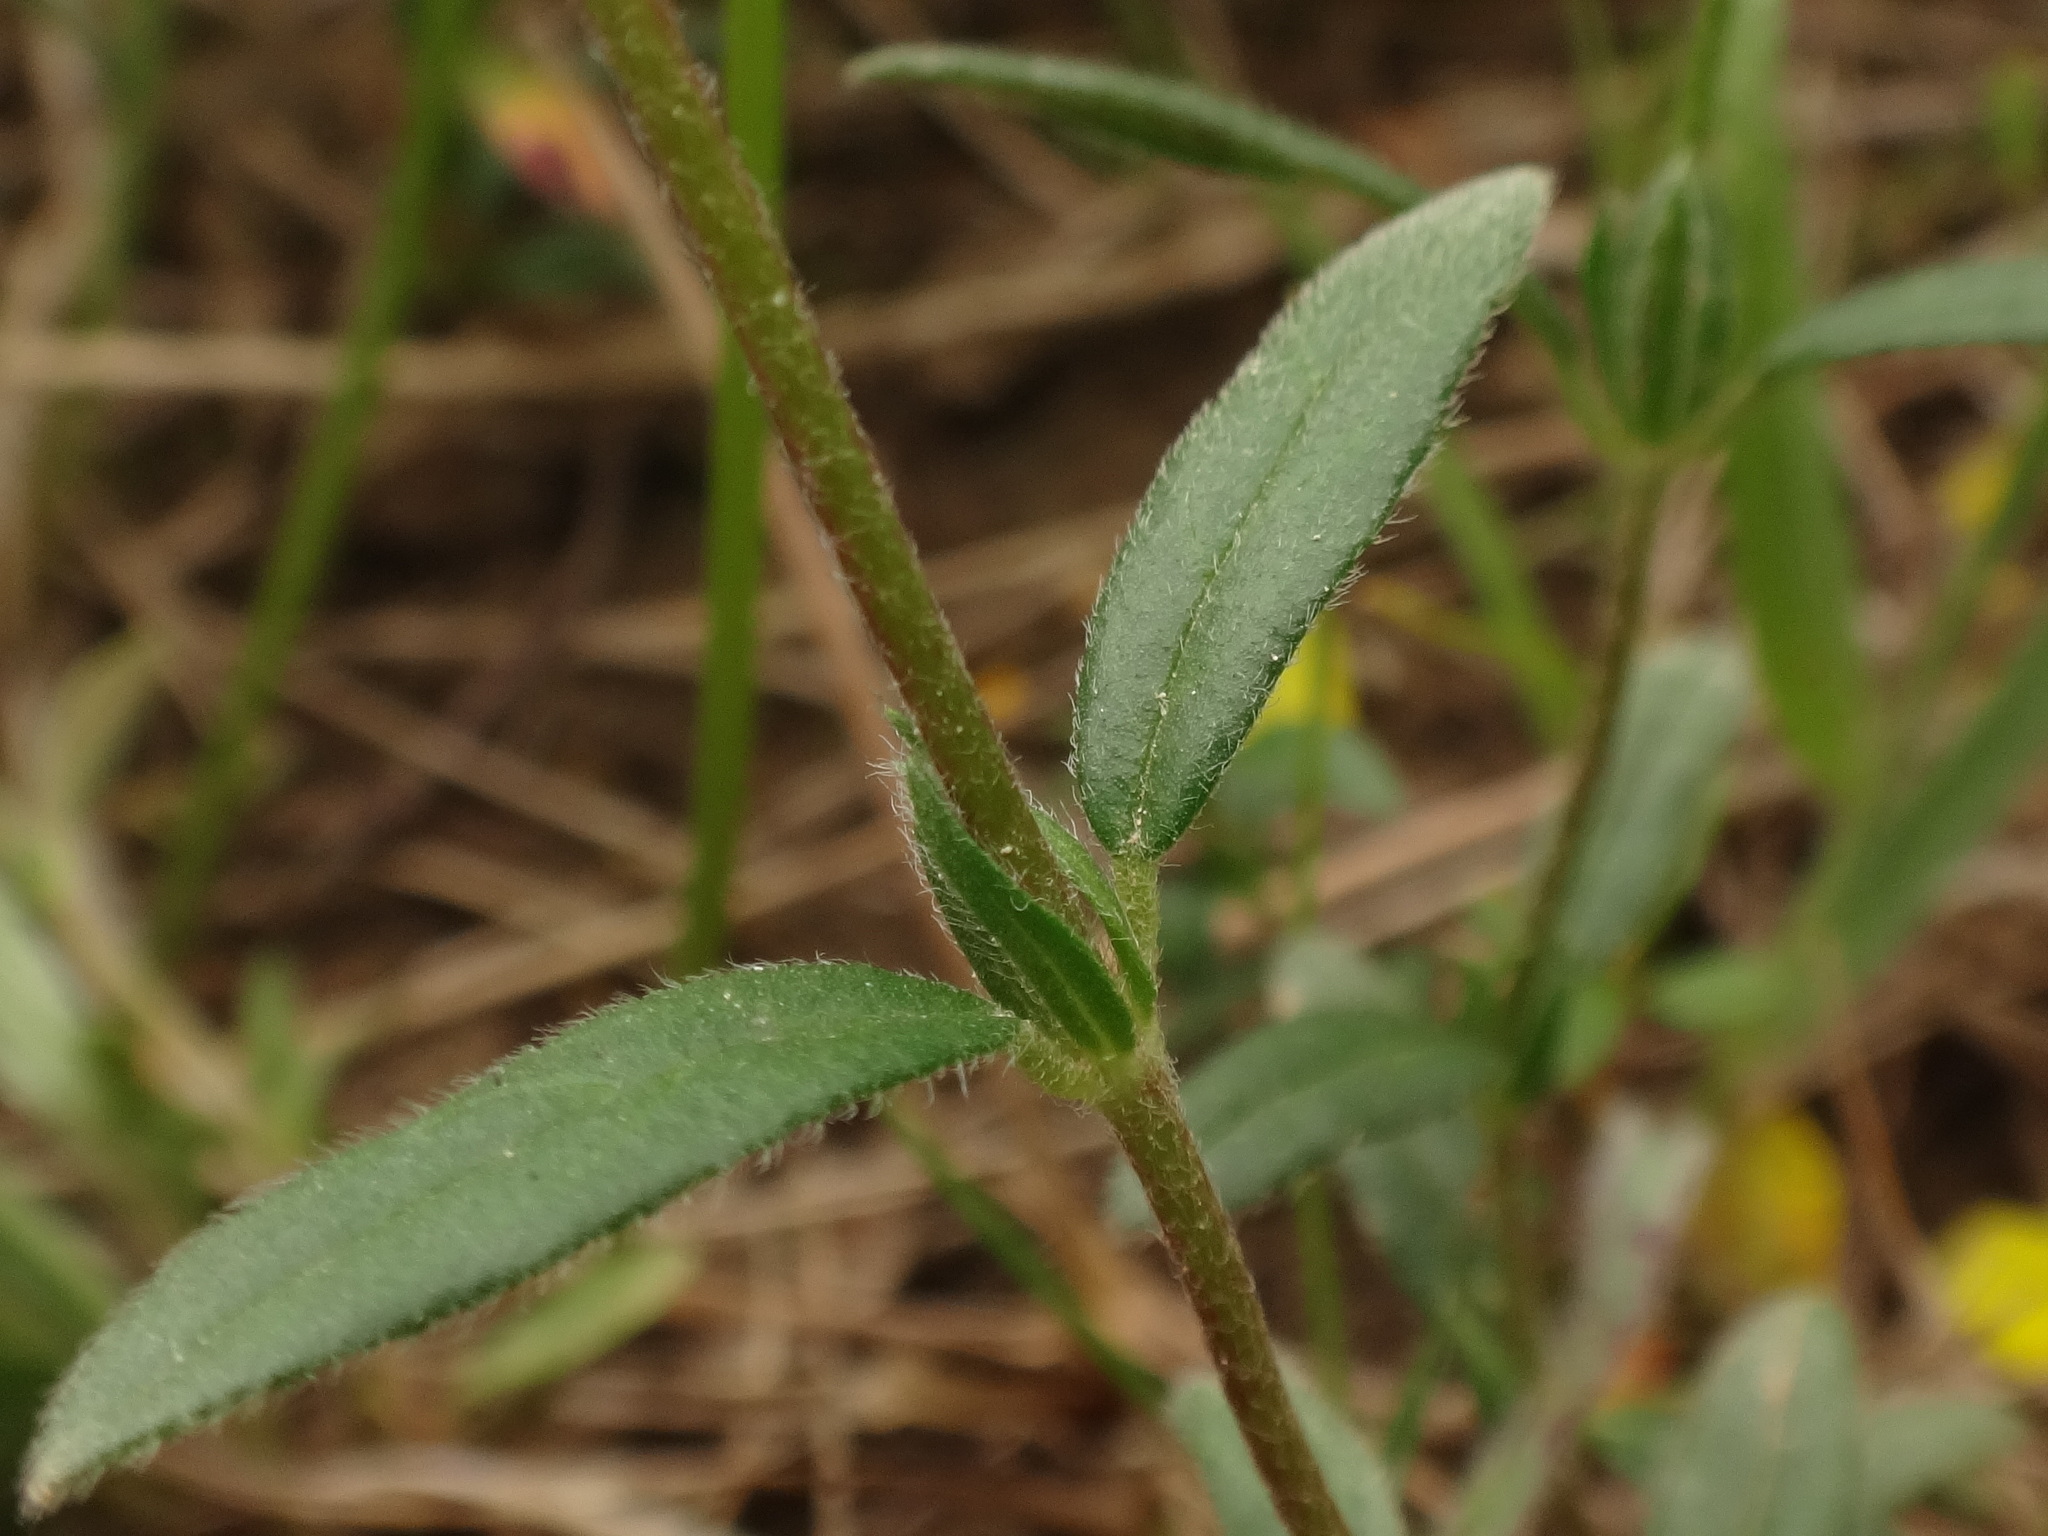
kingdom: Plantae
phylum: Tracheophyta
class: Magnoliopsida
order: Malvales
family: Cistaceae
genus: Helianthemum
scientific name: Helianthemum nummularium
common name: Common rock-rose
